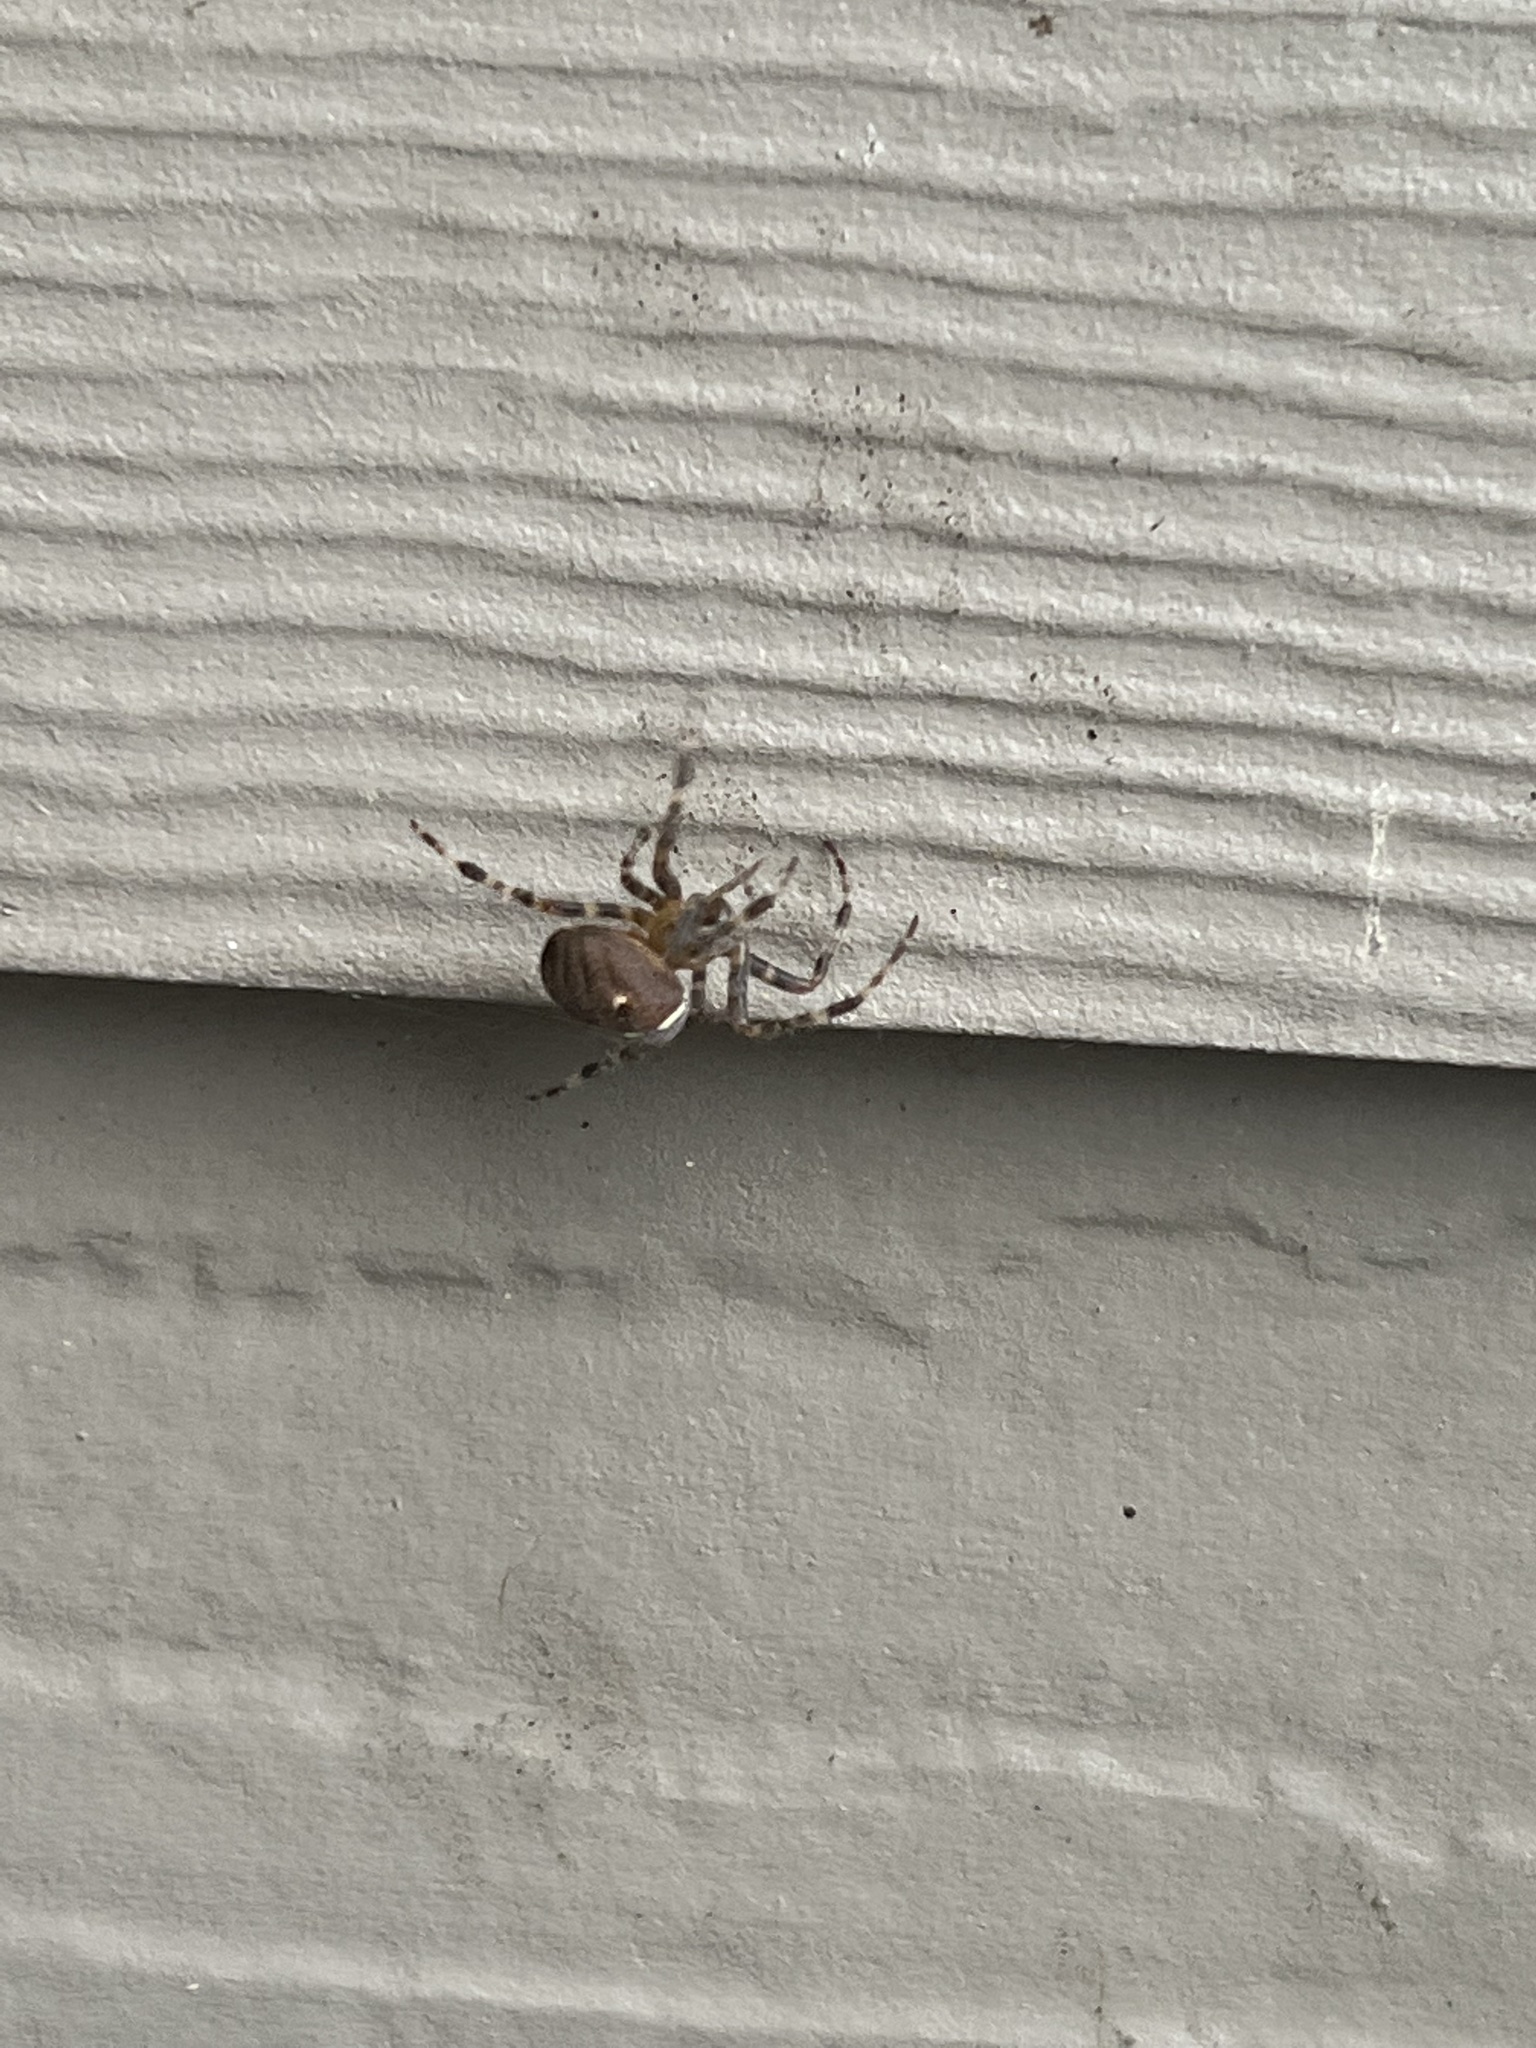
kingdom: Animalia
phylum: Arthropoda
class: Arachnida
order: Araneae
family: Araneidae
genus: Araneus
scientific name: Araneus diadematus
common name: Cross orbweaver
